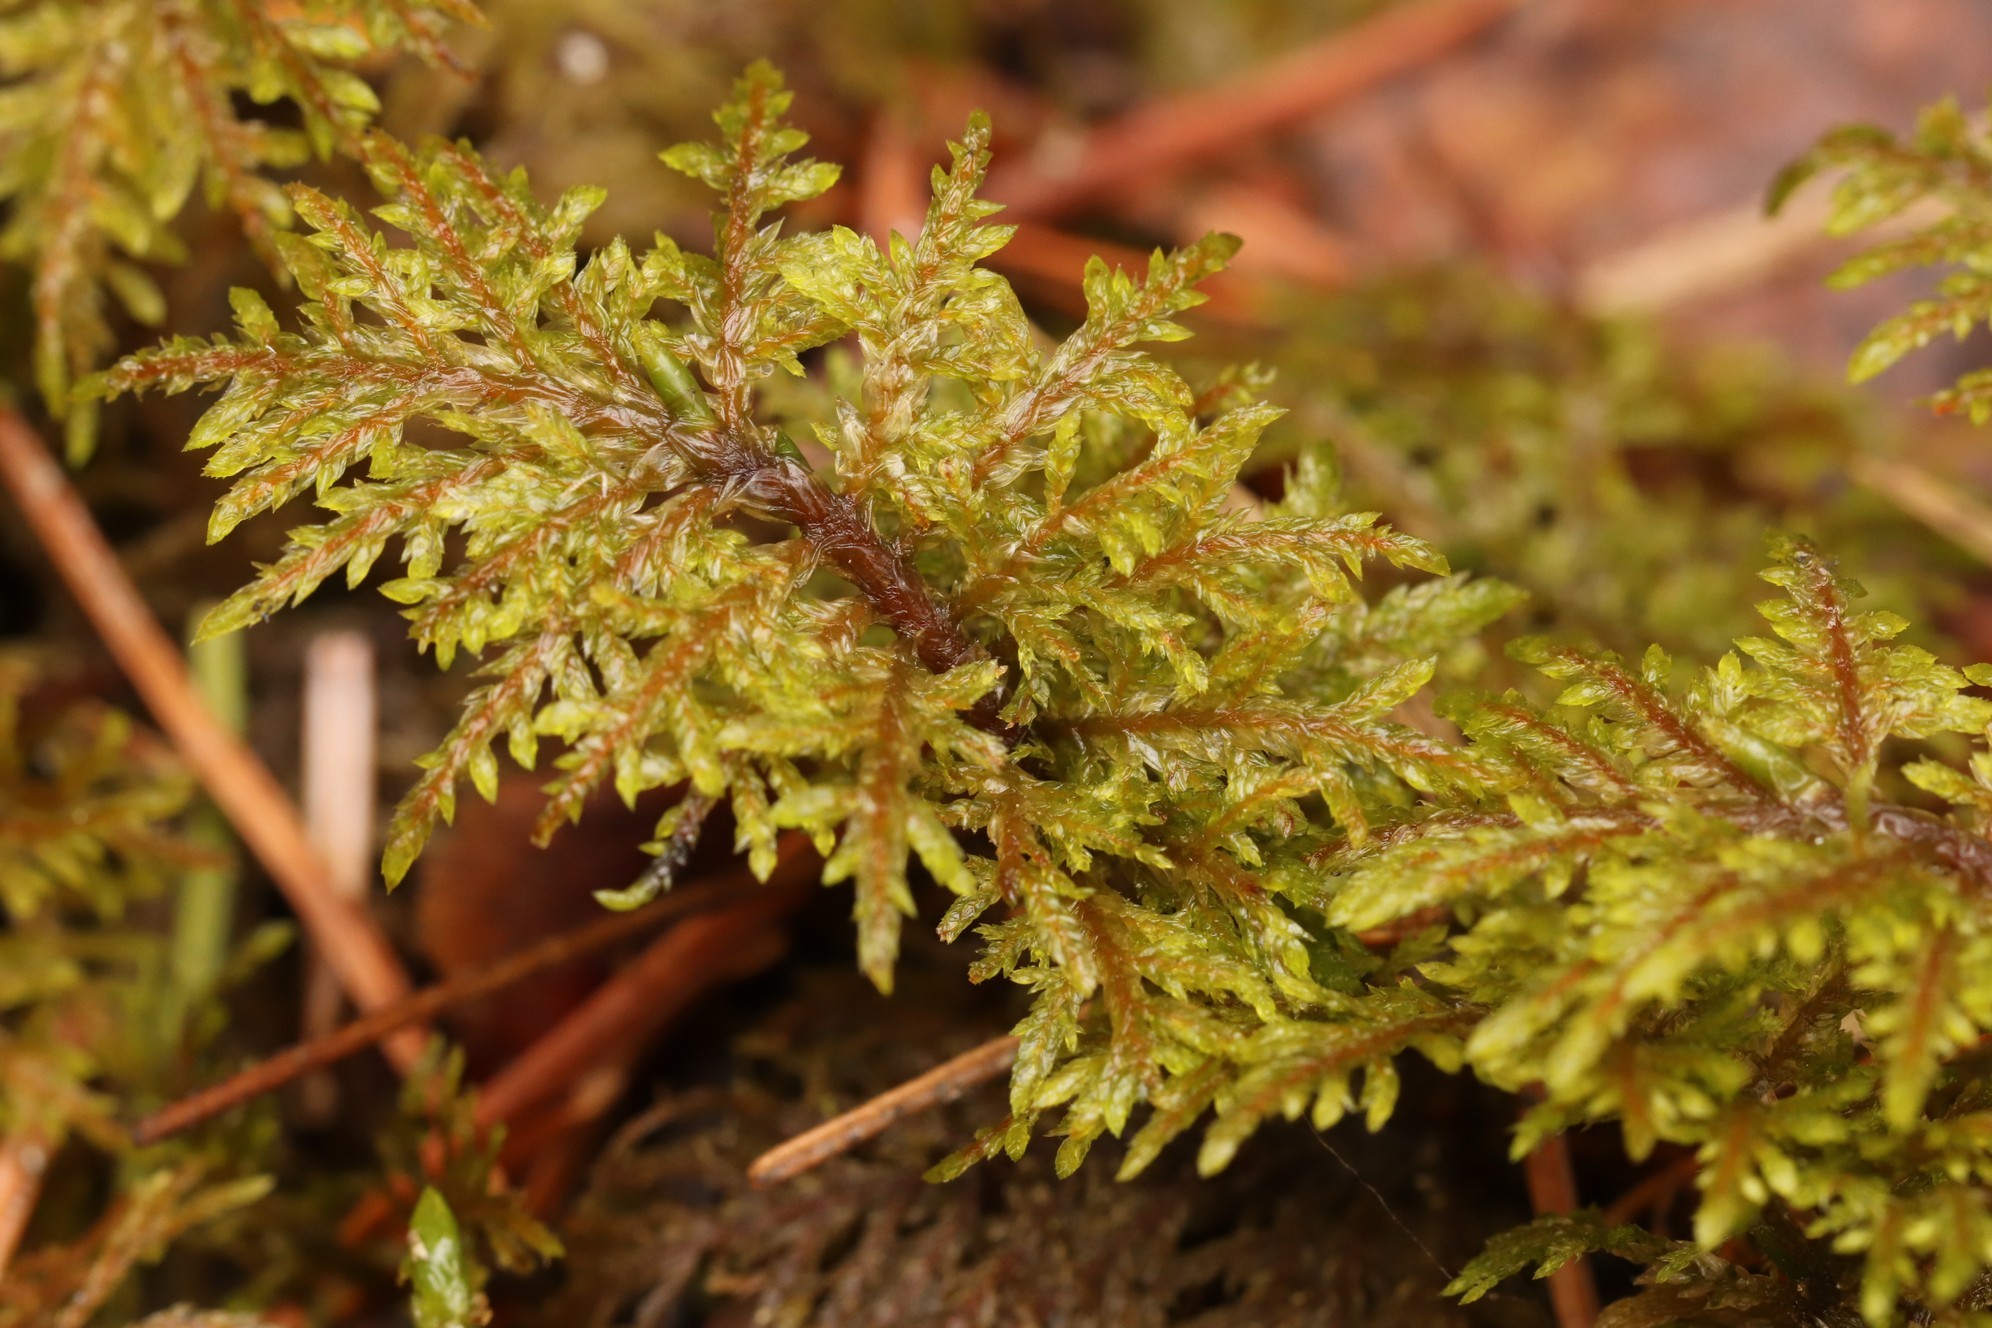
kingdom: Plantae
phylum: Bryophyta
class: Bryopsida
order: Hypnales
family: Hylocomiaceae
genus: Hylocomium
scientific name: Hylocomium splendens
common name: Stairstep moss
